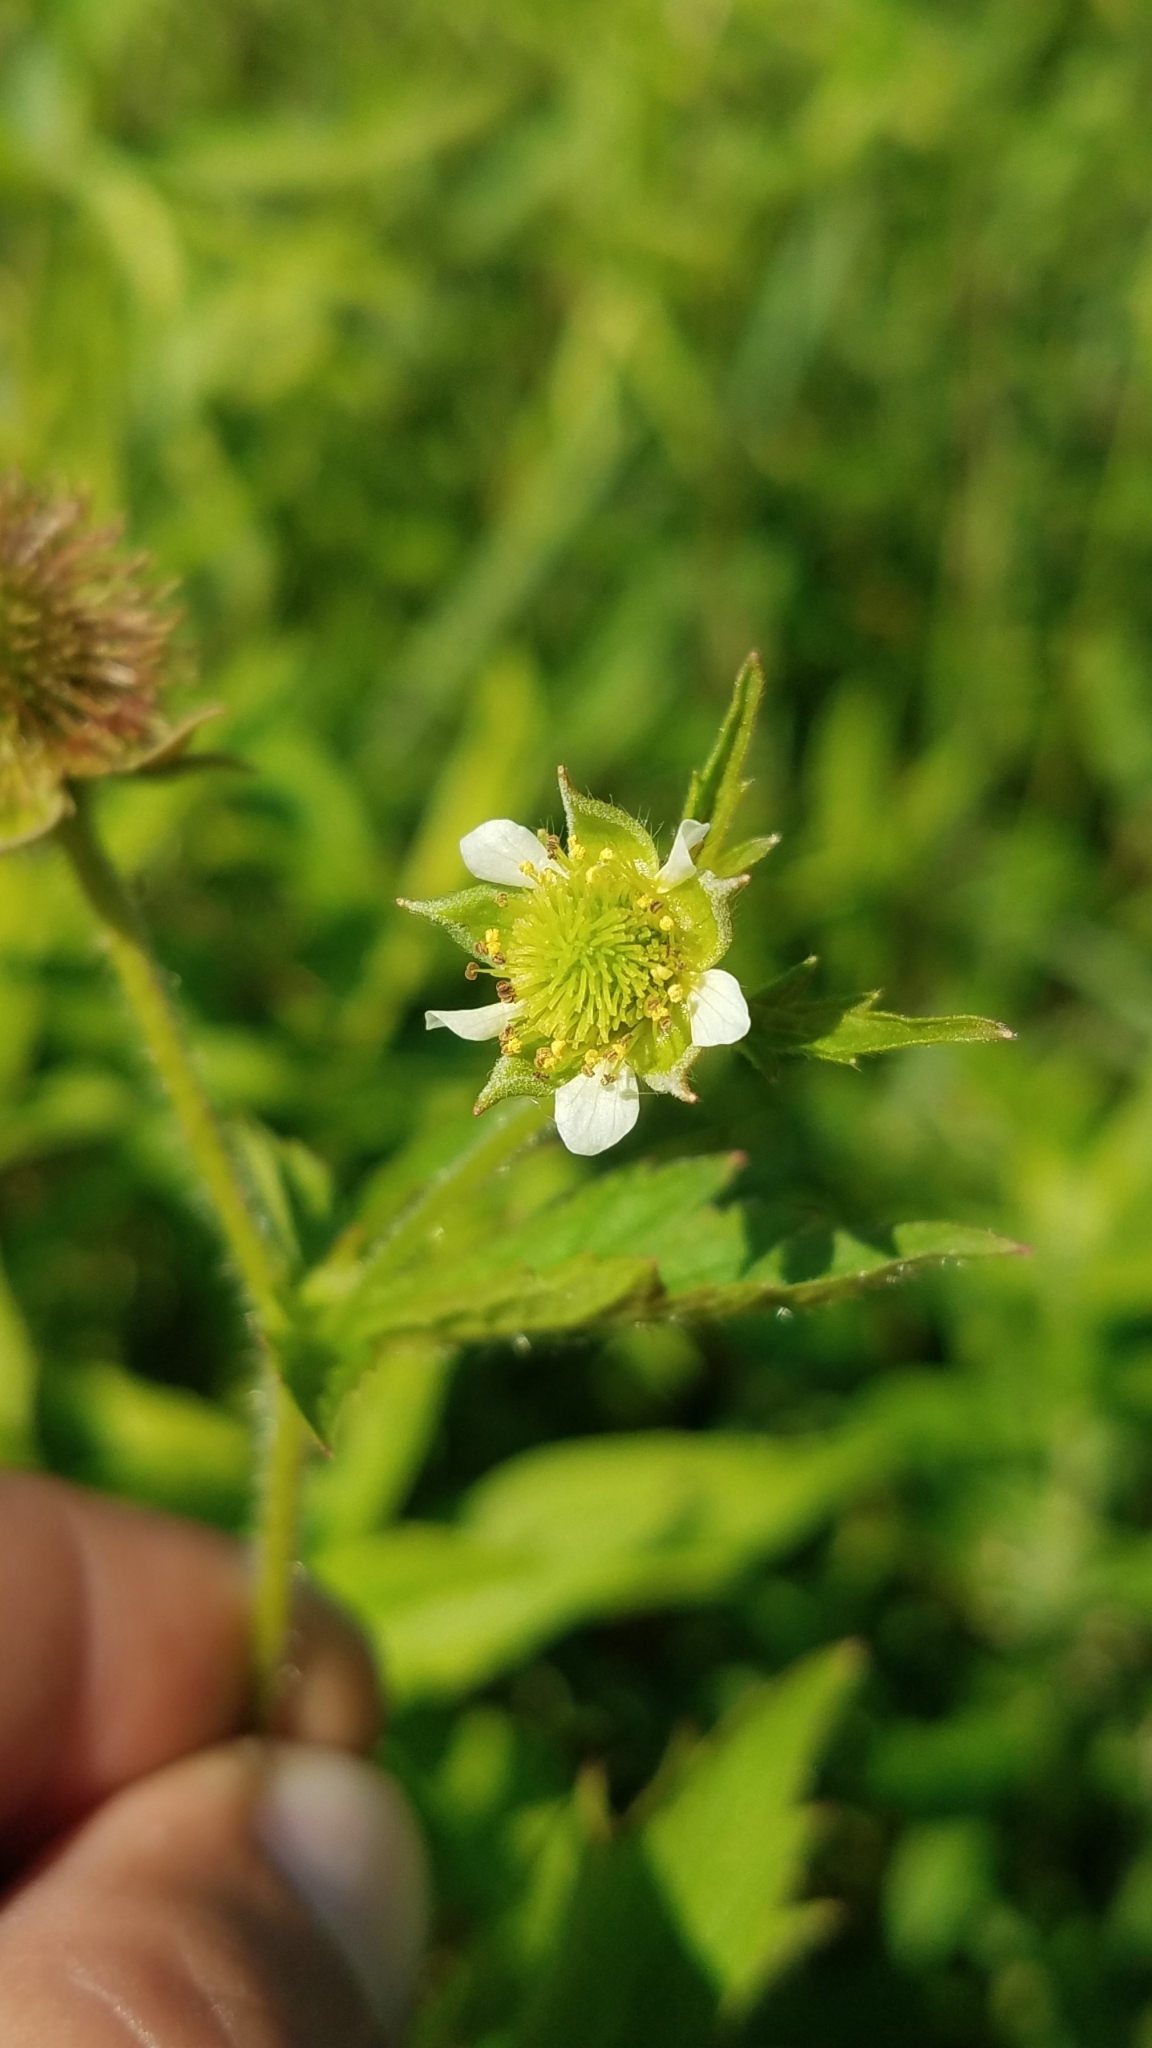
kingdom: Plantae
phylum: Tracheophyta
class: Magnoliopsida
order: Rosales
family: Rosaceae
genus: Geum
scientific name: Geum laciniatum
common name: Rough avens
